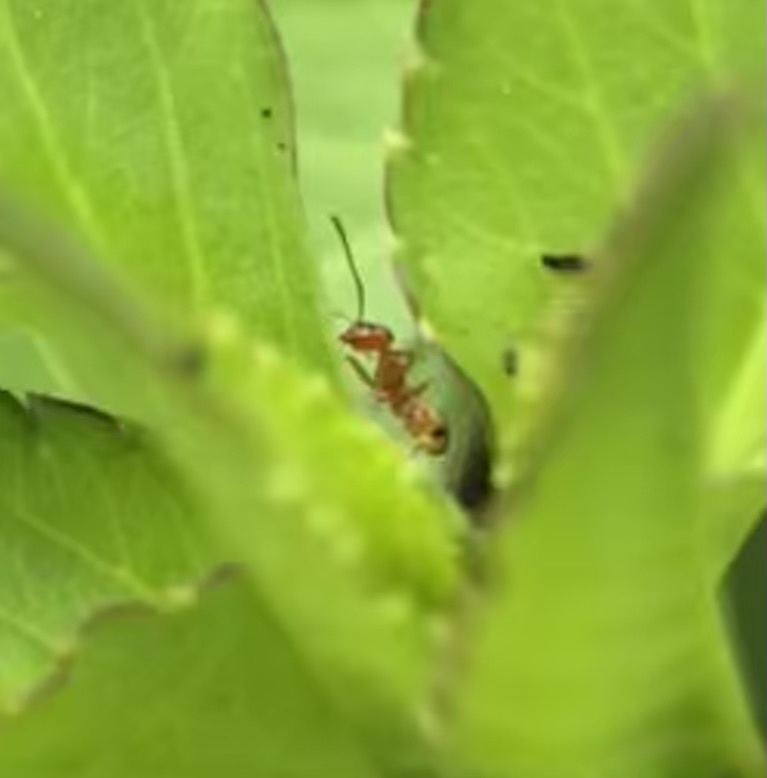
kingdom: Animalia
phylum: Arthropoda
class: Insecta
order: Hymenoptera
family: Formicidae
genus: Dorymyrmex
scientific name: Dorymyrmex bureni
